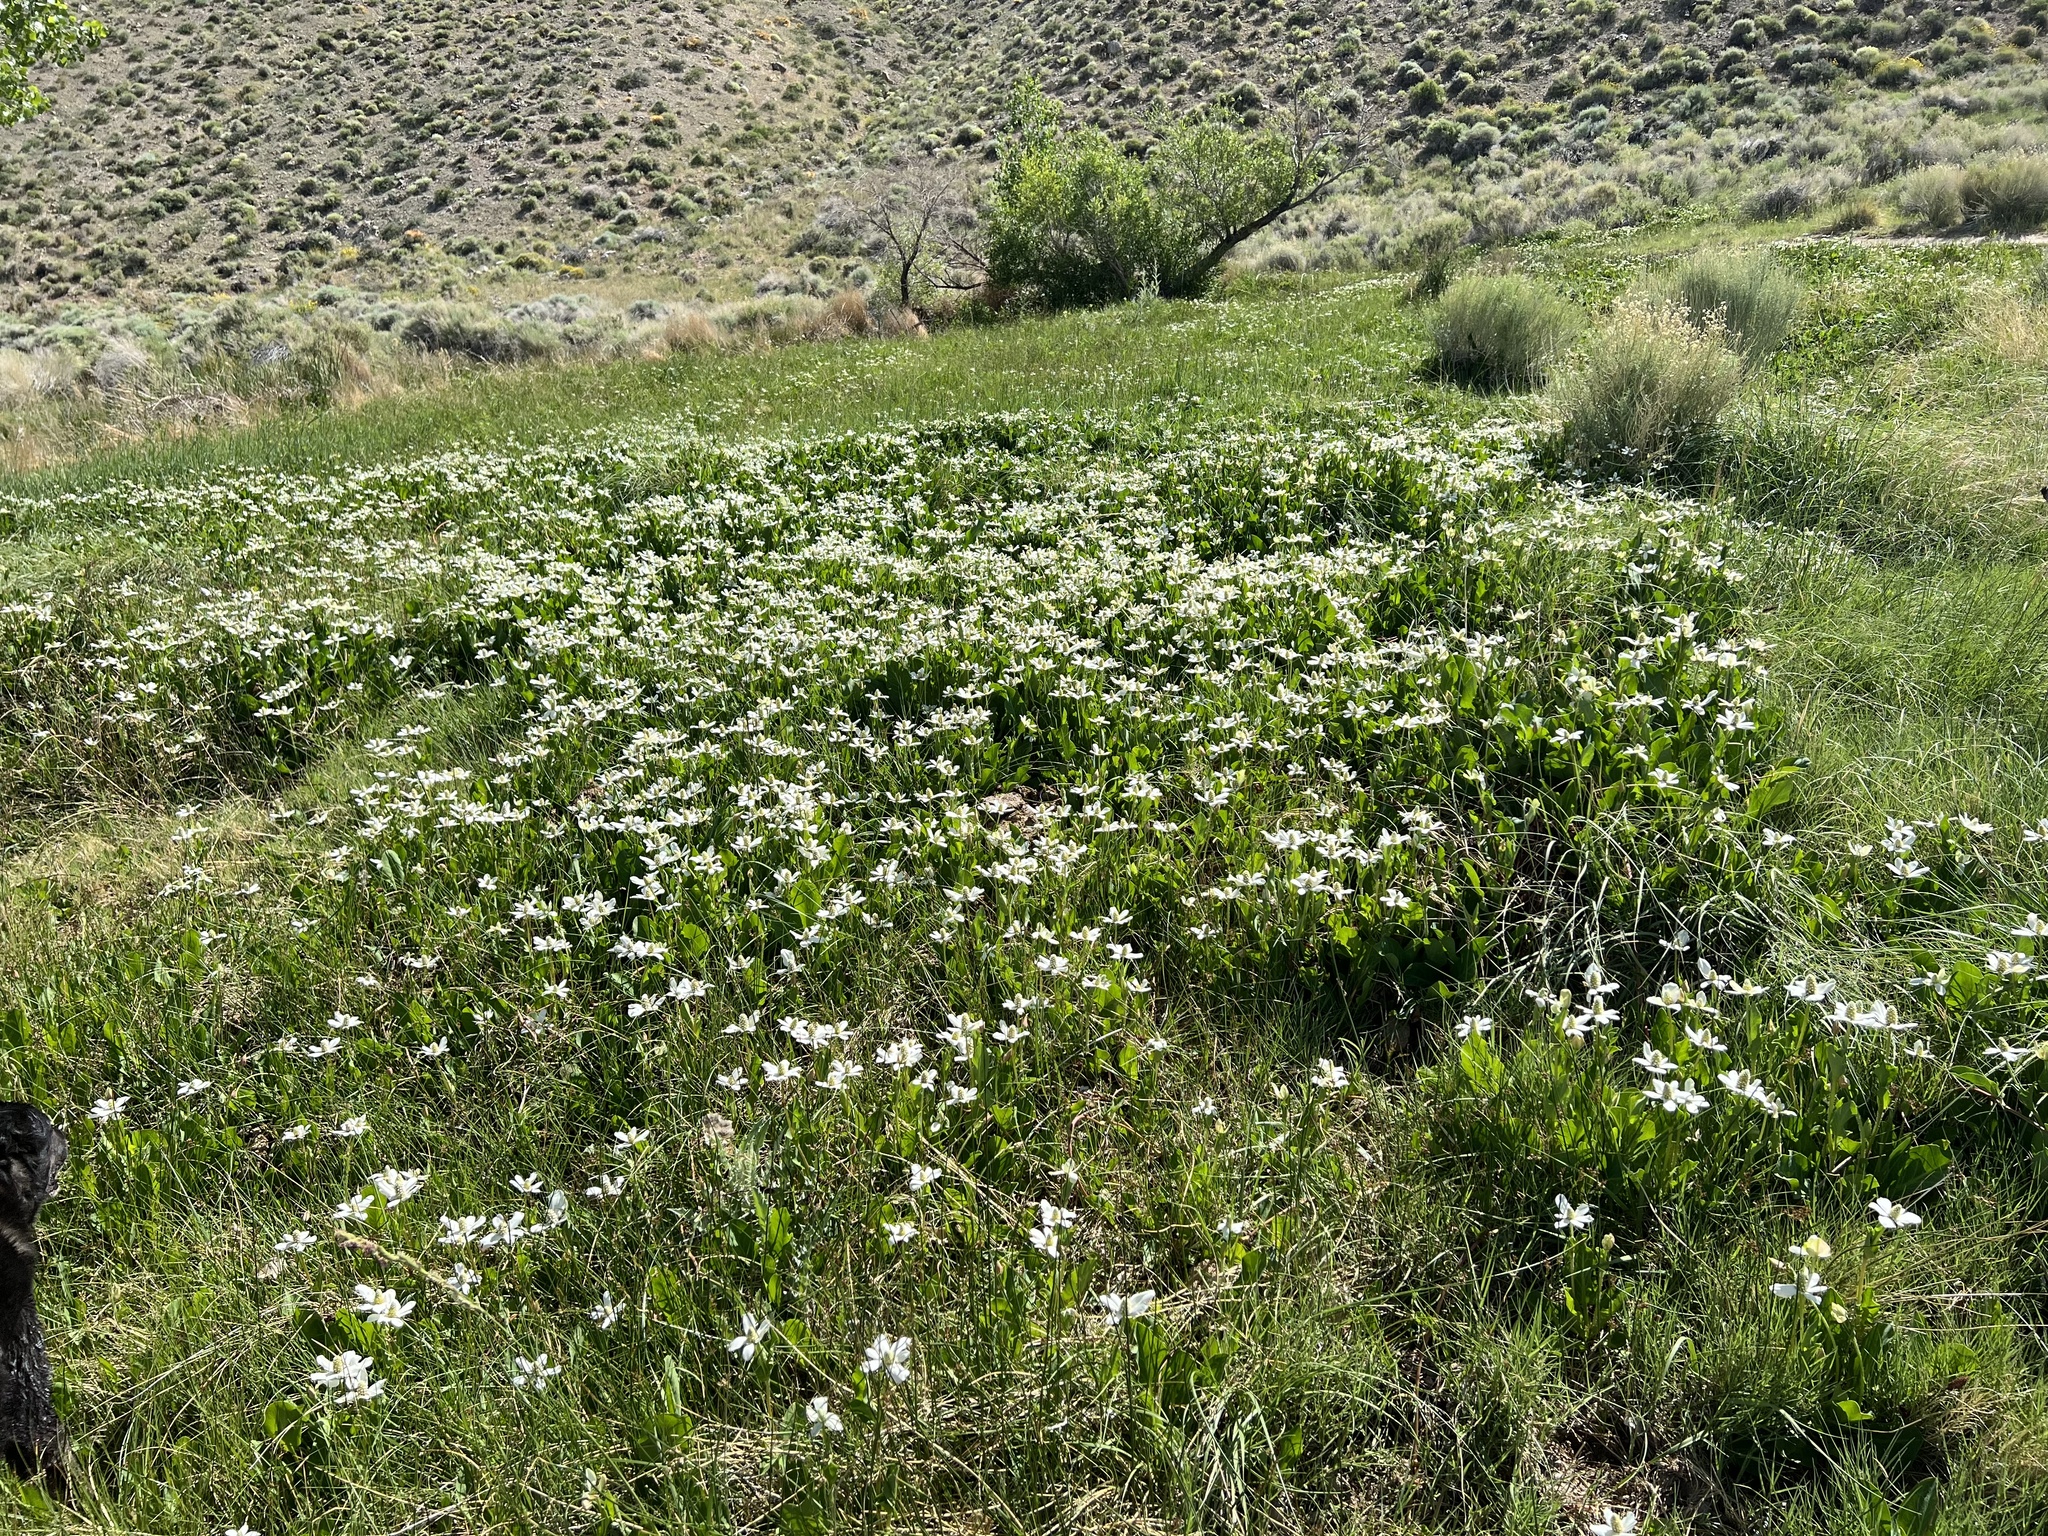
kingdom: Plantae
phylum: Tracheophyta
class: Magnoliopsida
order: Piperales
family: Saururaceae
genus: Anemopsis
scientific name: Anemopsis californica
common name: Apache-beads
